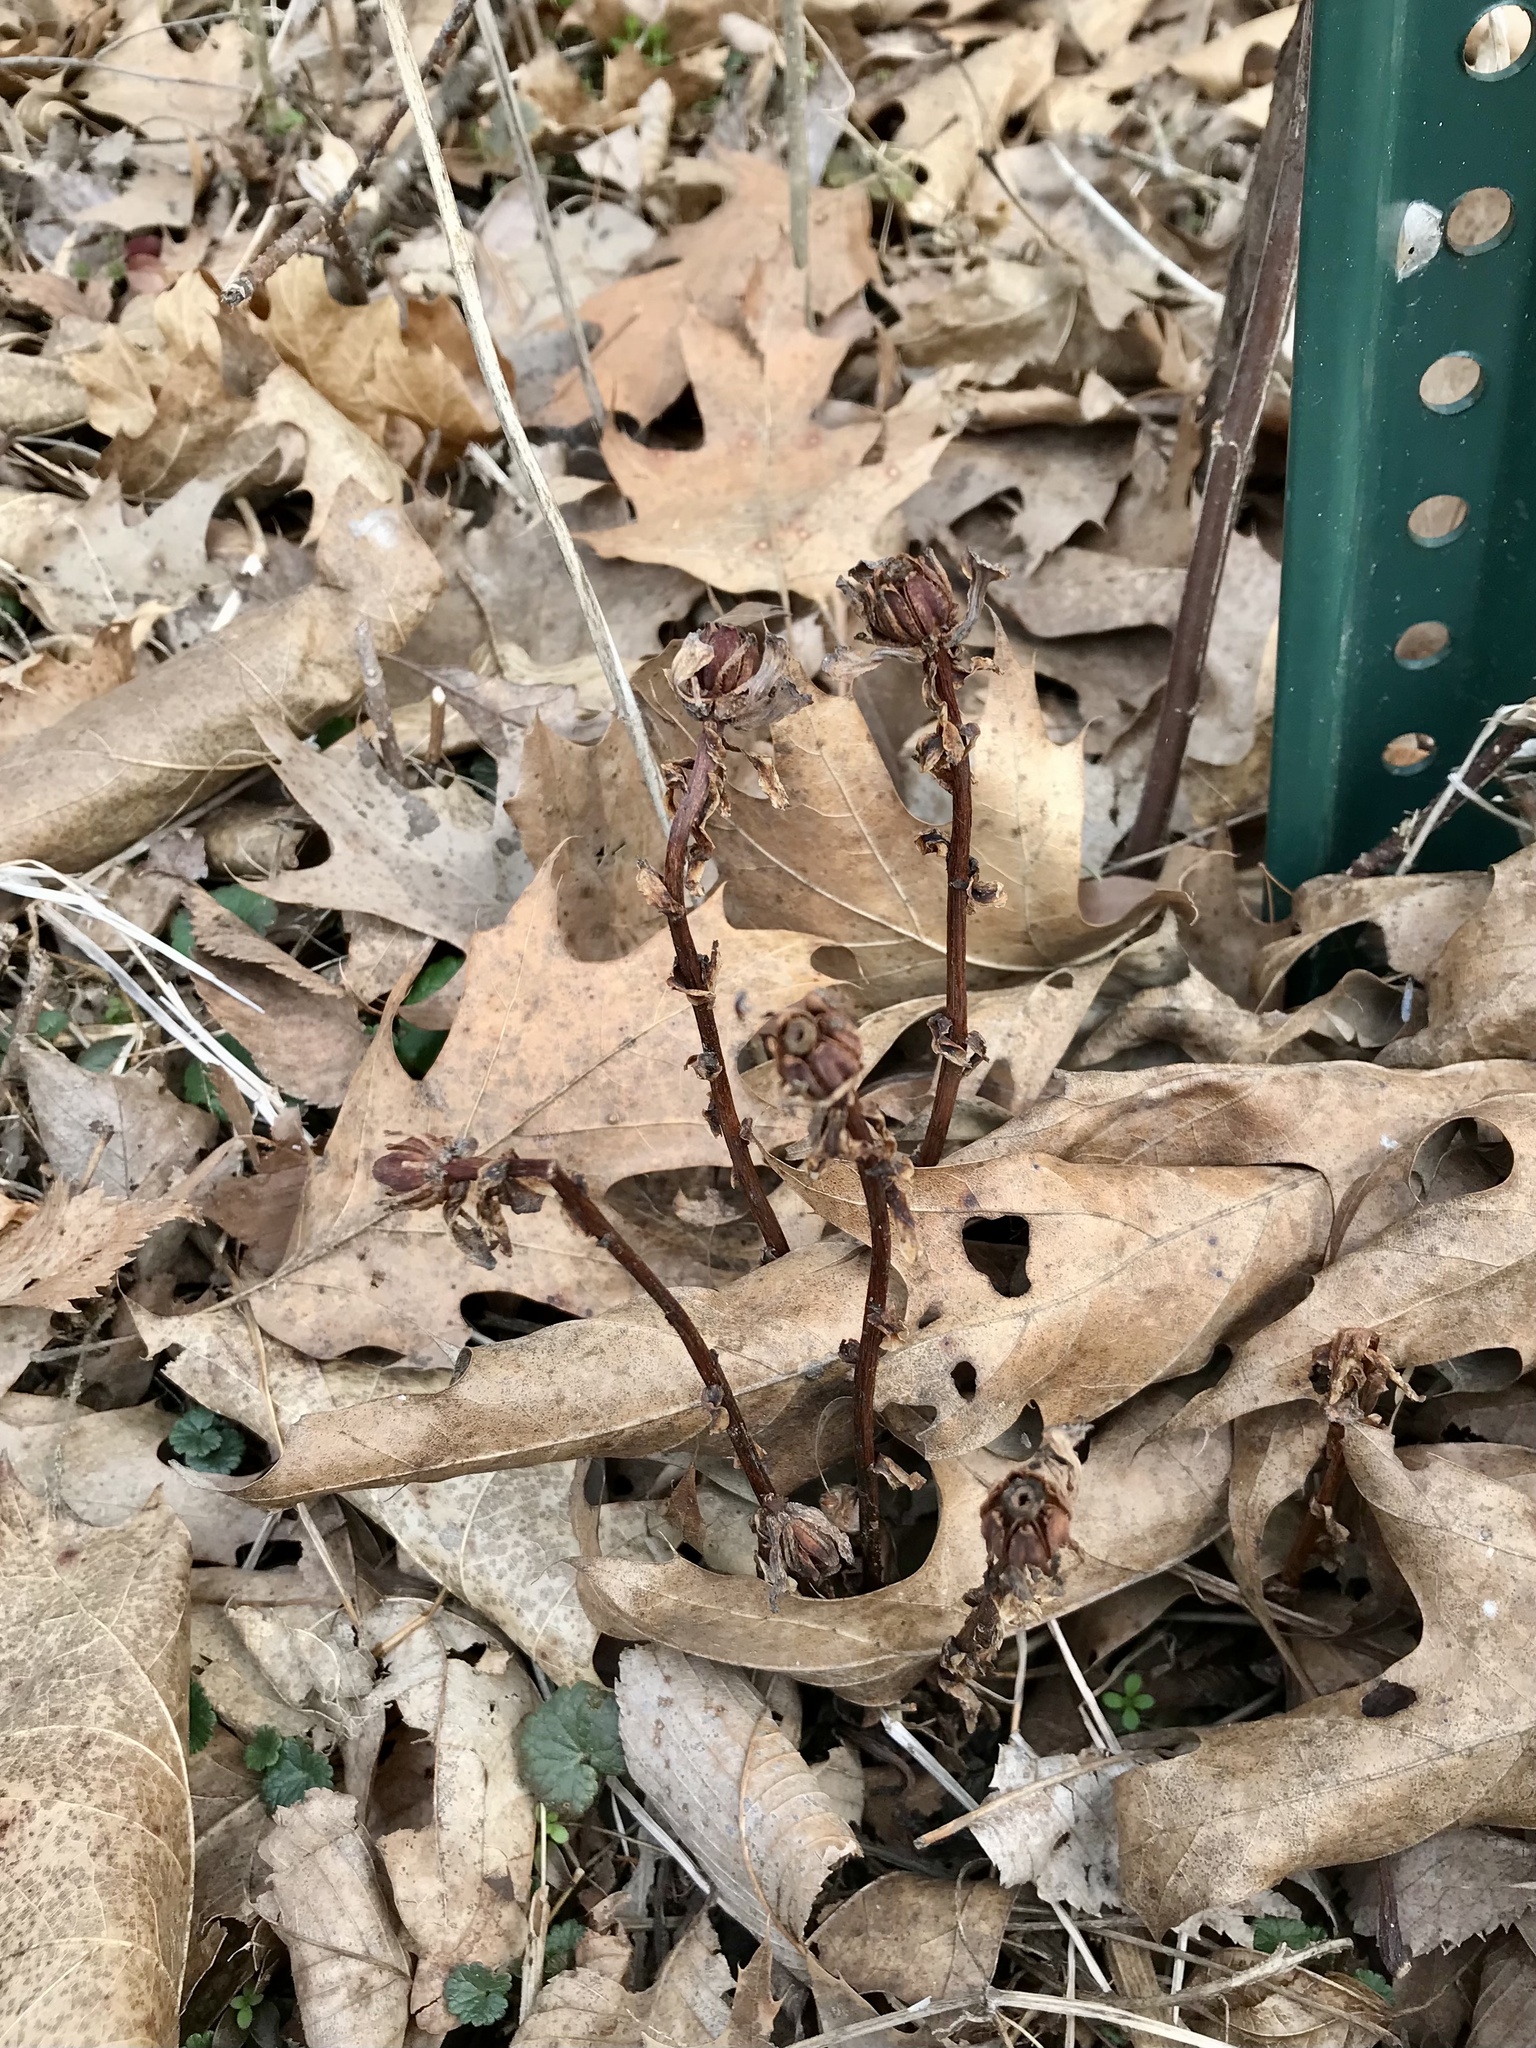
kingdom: Plantae
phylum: Tracheophyta
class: Magnoliopsida
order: Ericales
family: Ericaceae
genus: Monotropa
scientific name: Monotropa uniflora
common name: Convulsion root
